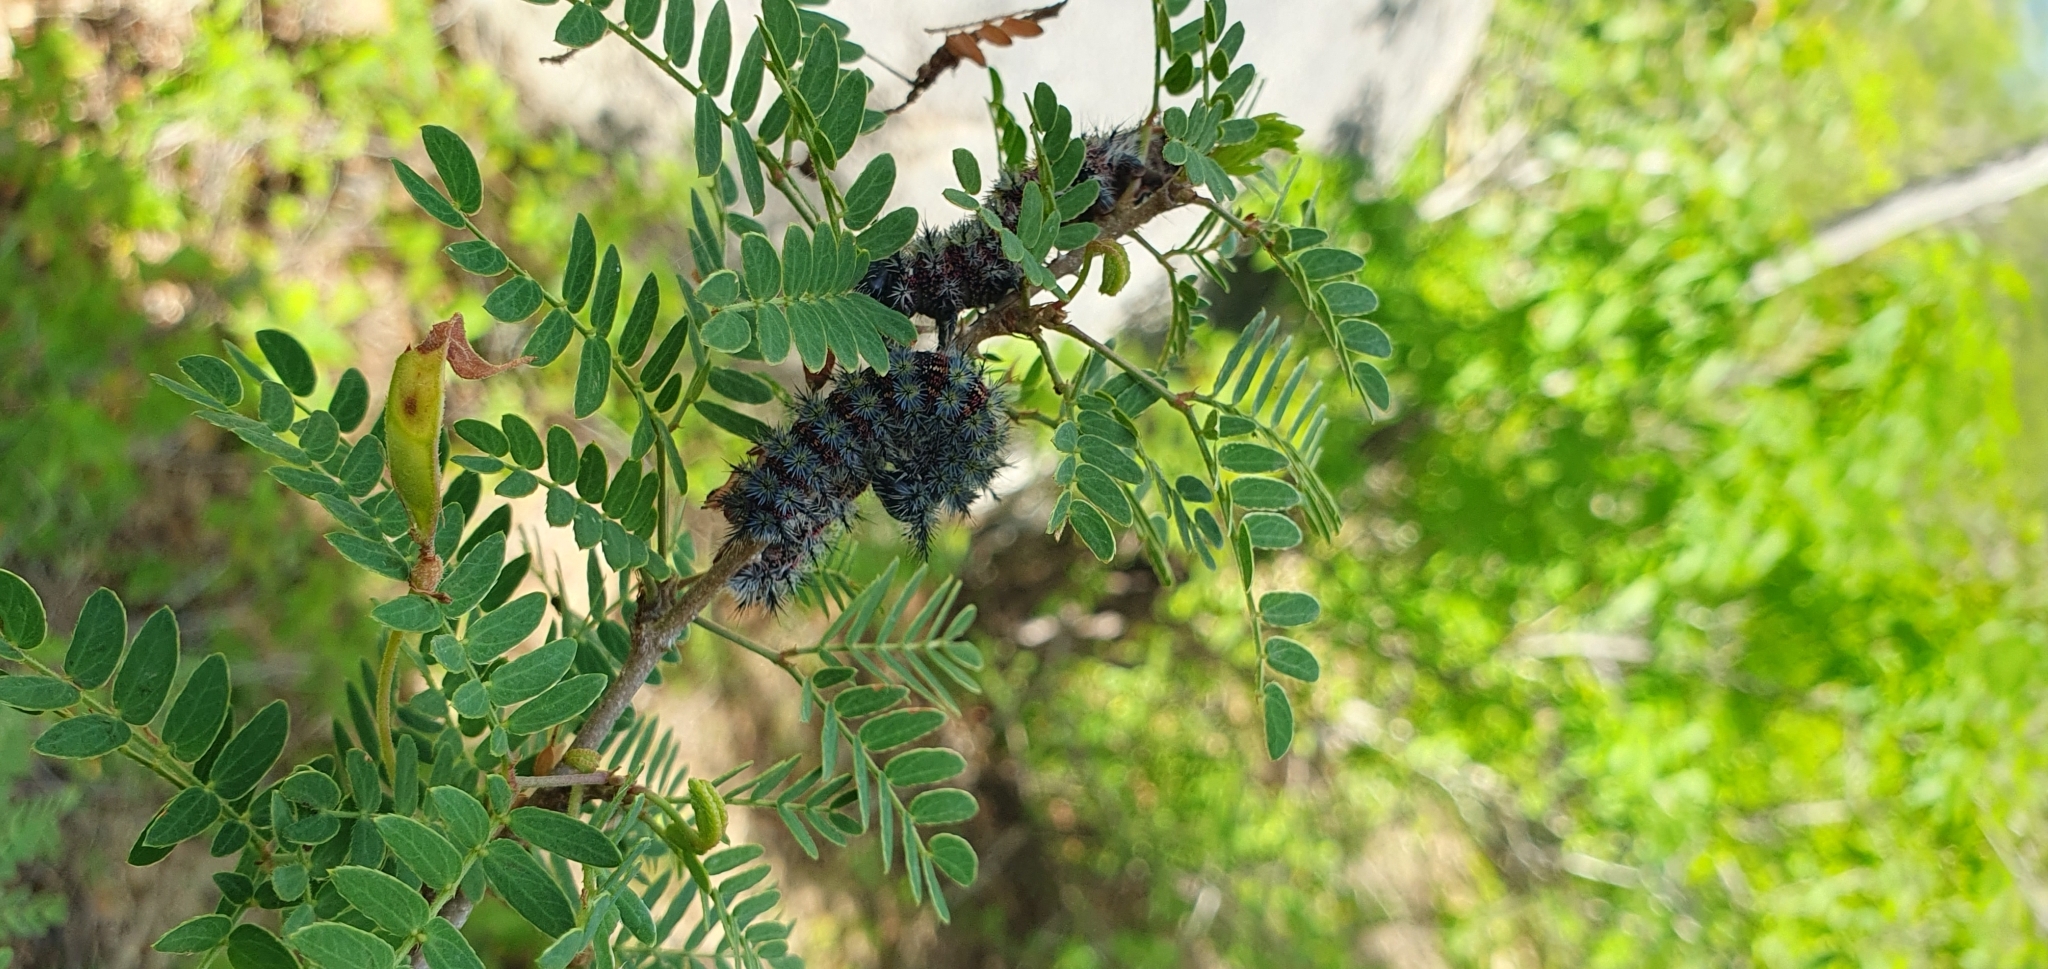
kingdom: Plantae
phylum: Tracheophyta
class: Magnoliopsida
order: Fabales
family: Fabaceae
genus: Mimosa
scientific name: Mimosa tricephala
